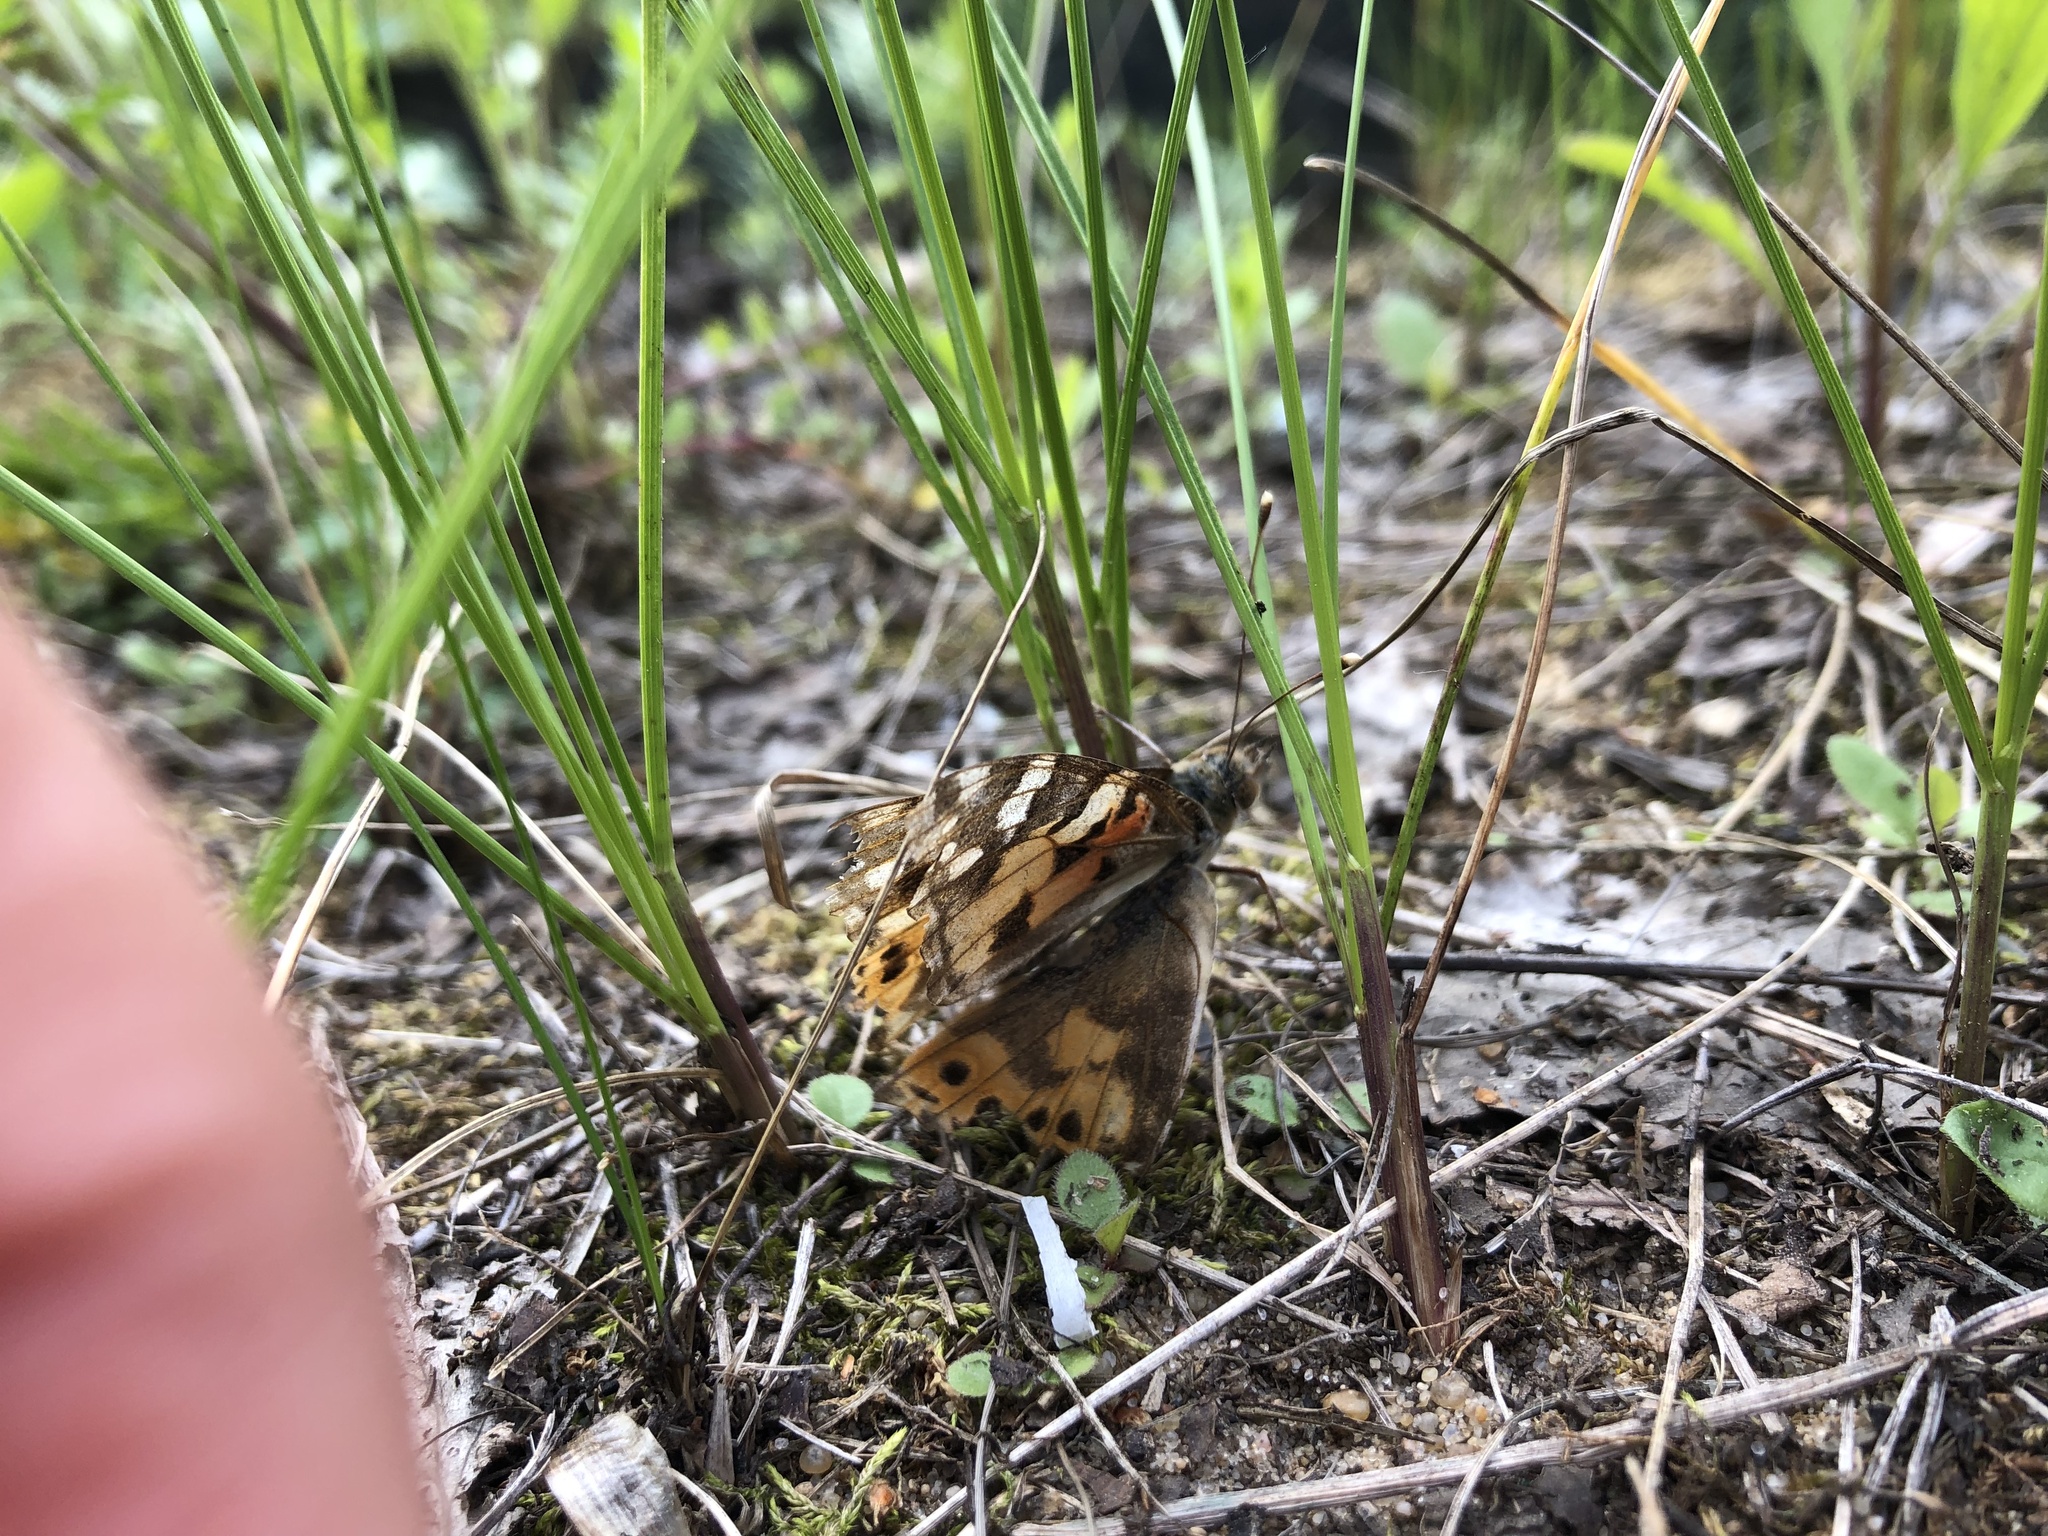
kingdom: Animalia
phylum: Arthropoda
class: Insecta
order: Lepidoptera
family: Nymphalidae
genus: Vanessa
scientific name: Vanessa cardui
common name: Painted lady
